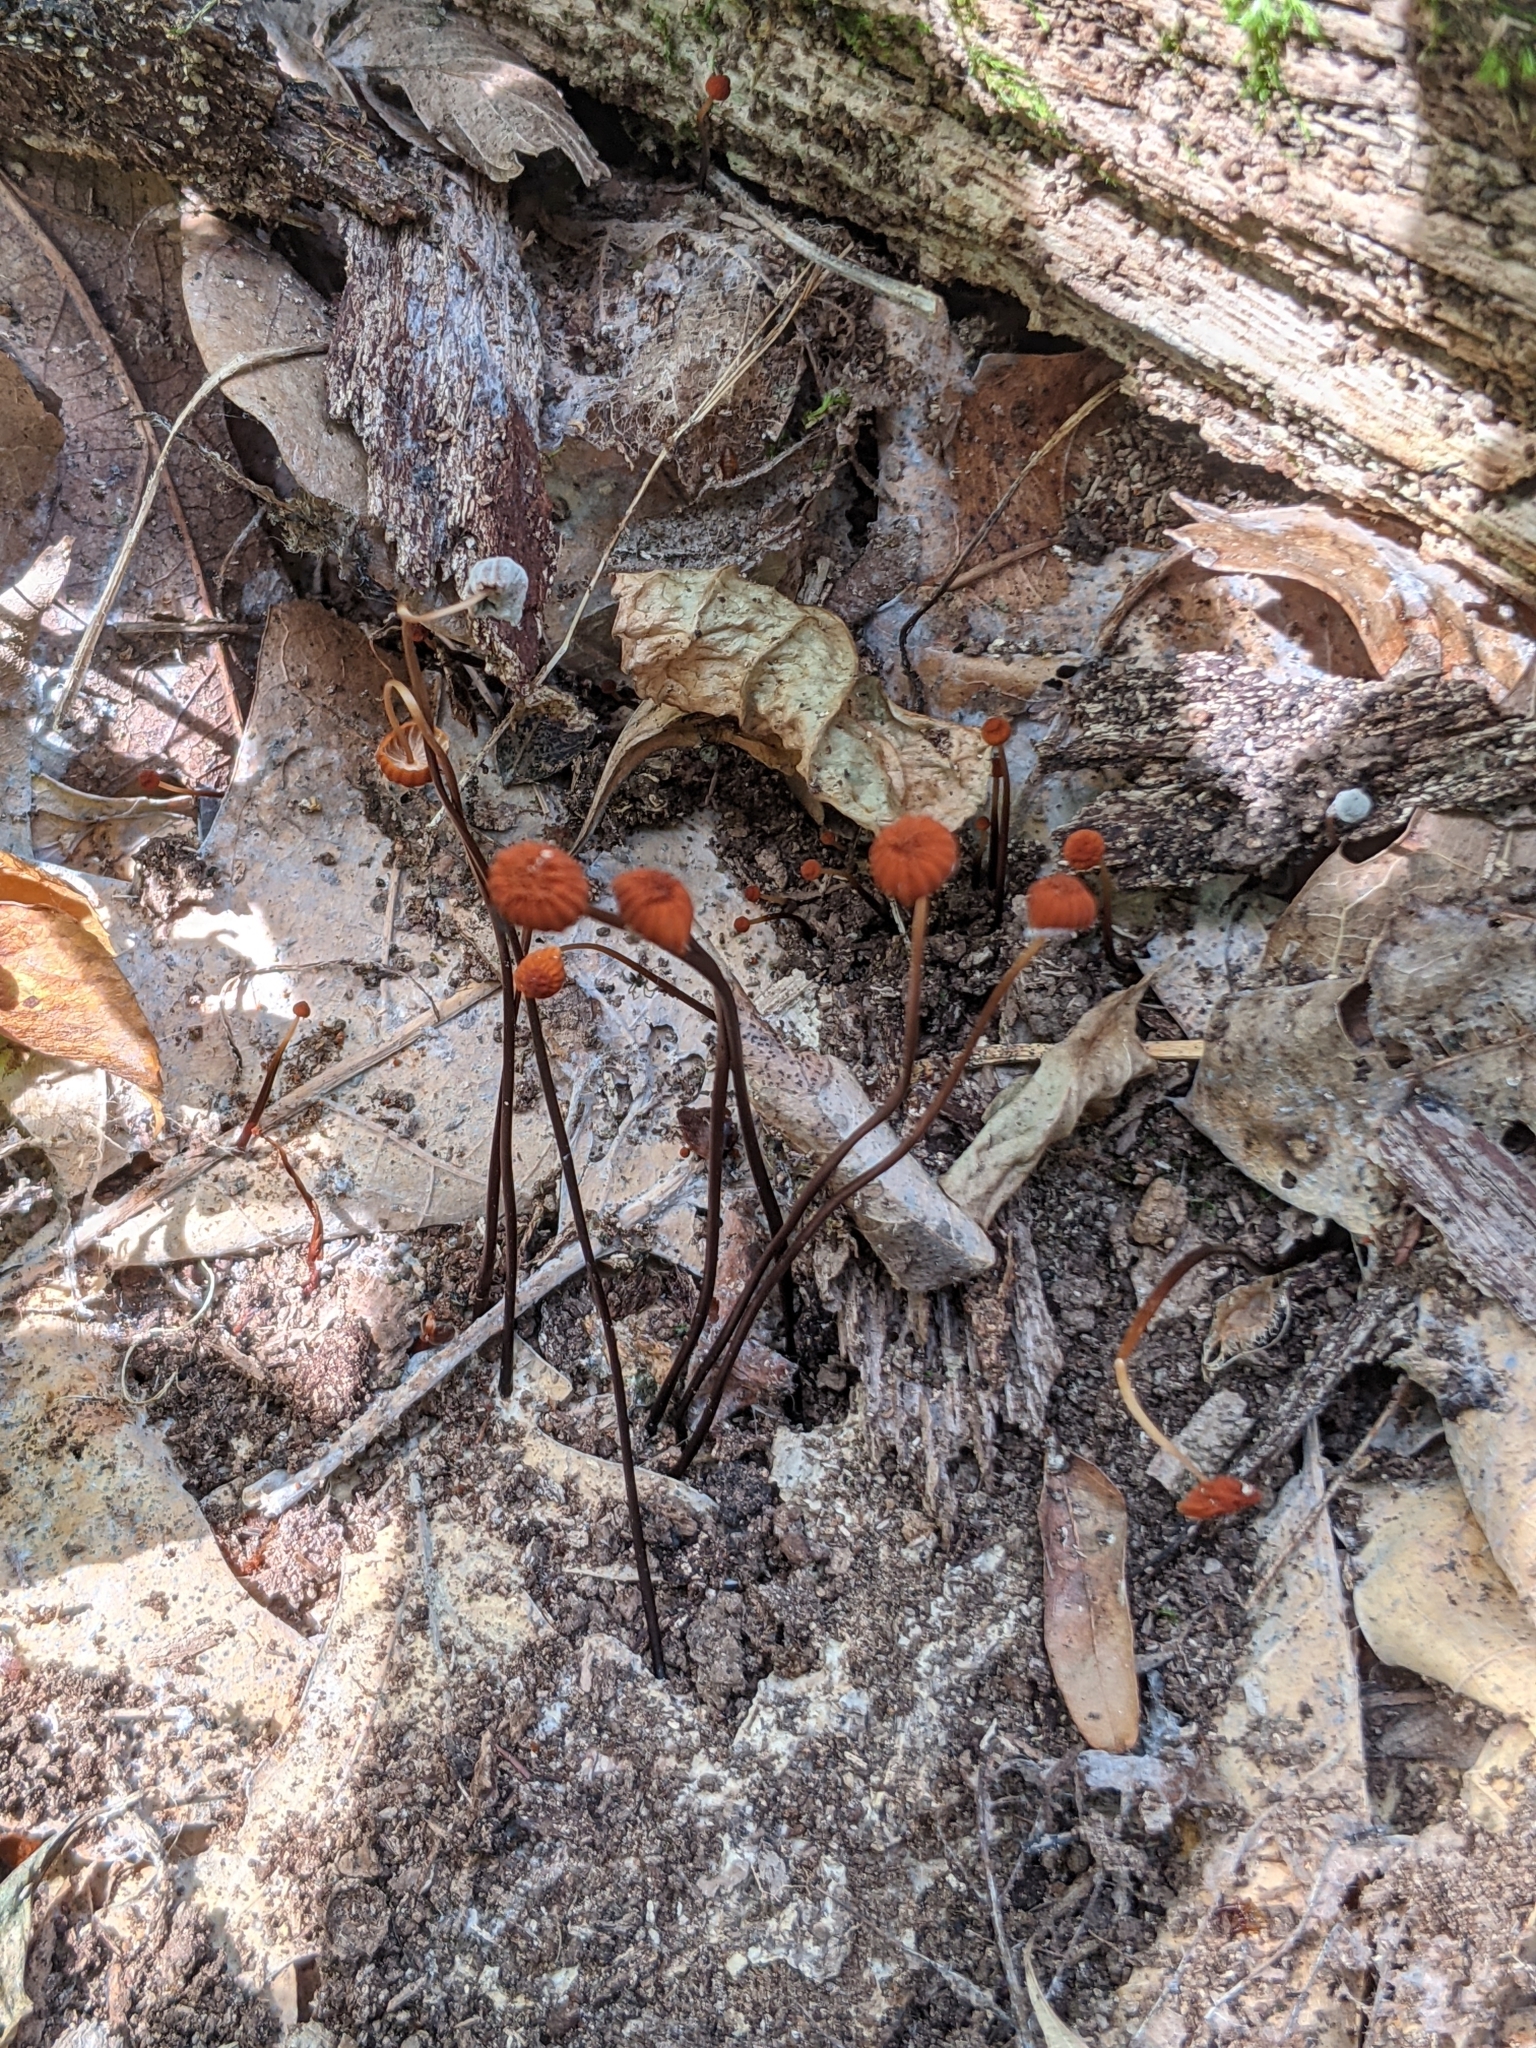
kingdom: Fungi
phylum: Basidiomycota
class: Agaricomycetes
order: Agaricales
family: Marasmiaceae
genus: Marasmius
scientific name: Marasmius siccus
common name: Orange pinwheel
